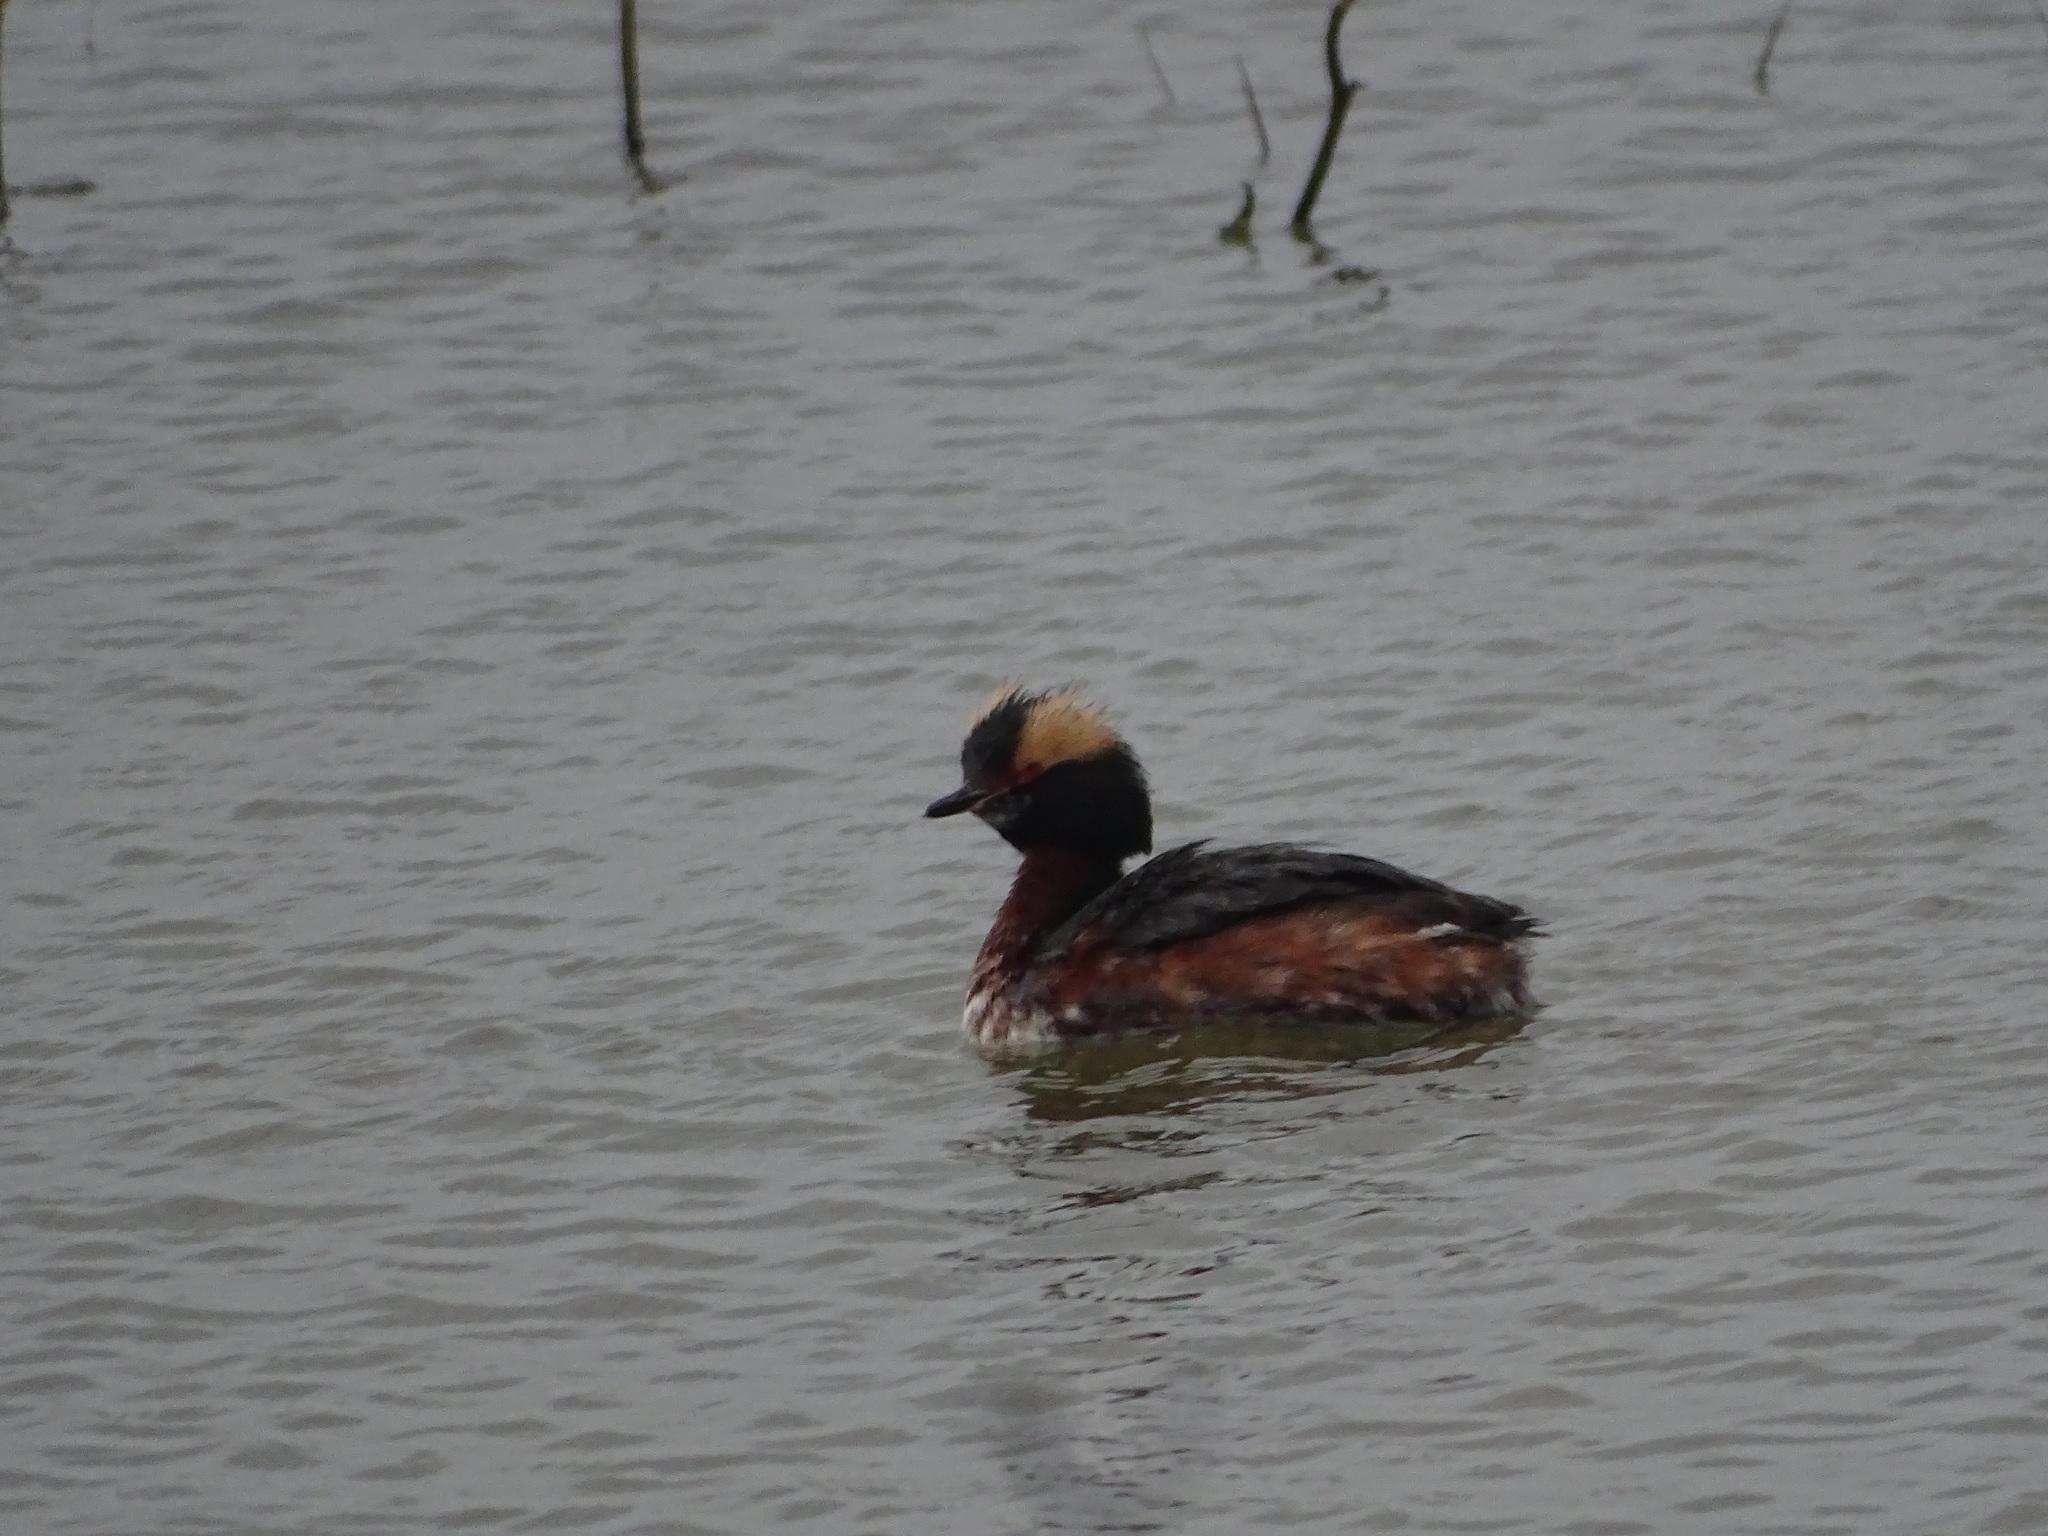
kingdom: Animalia
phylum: Chordata
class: Aves
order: Podicipediformes
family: Podicipedidae
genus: Podiceps
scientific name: Podiceps auritus
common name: Horned grebe
